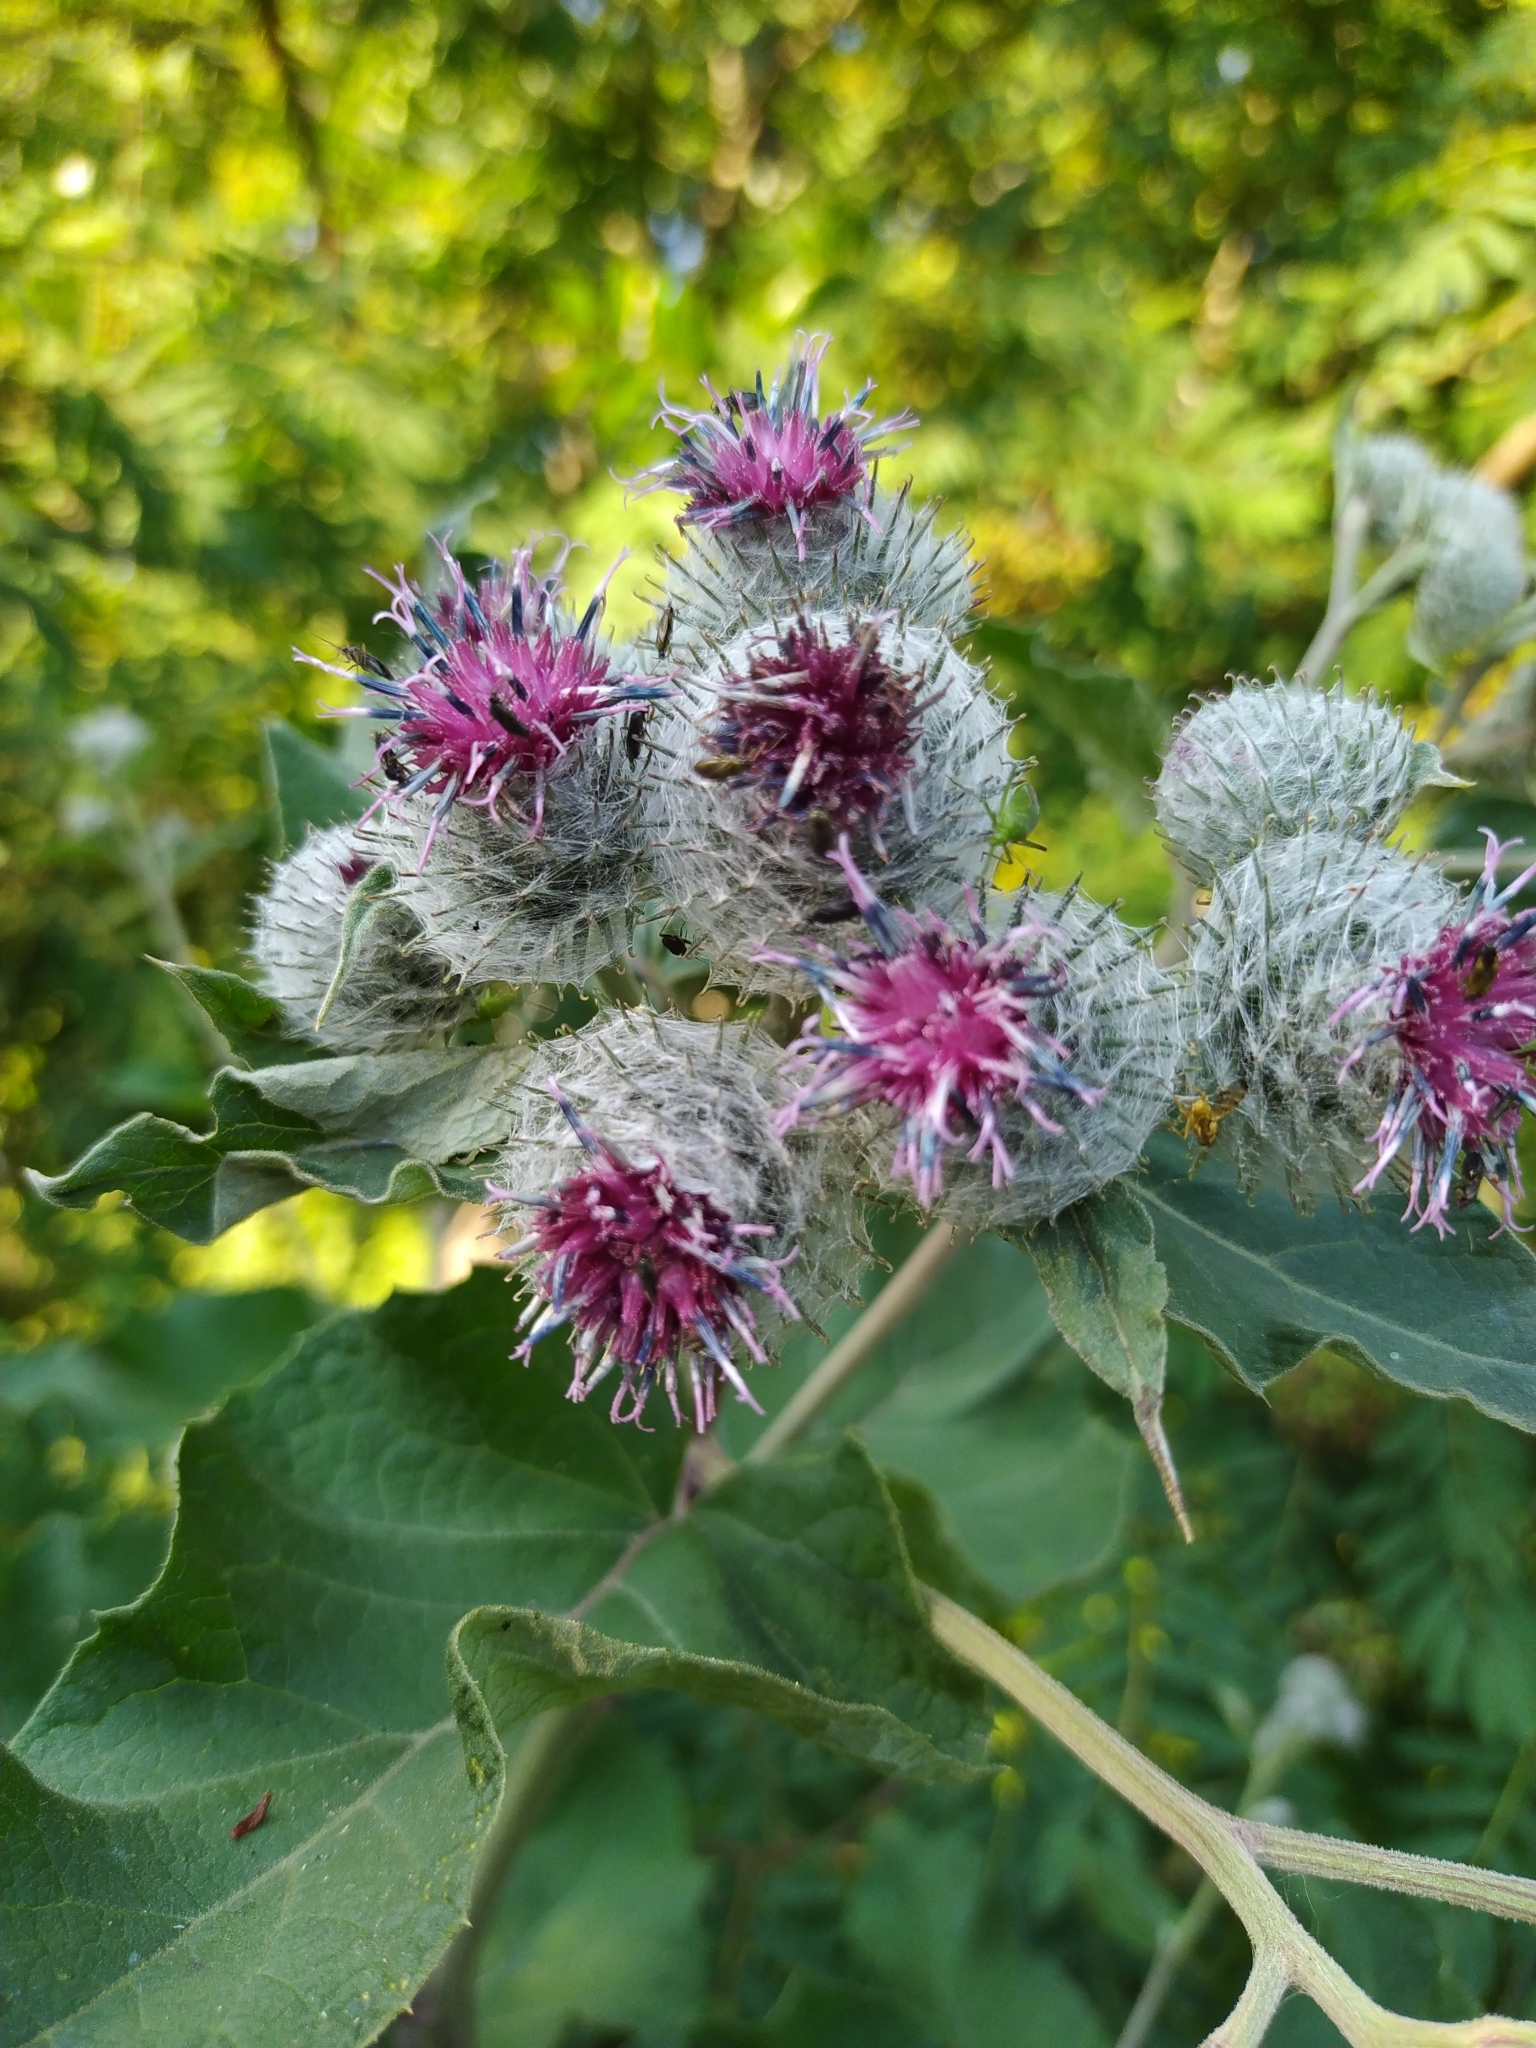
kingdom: Plantae
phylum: Tracheophyta
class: Magnoliopsida
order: Asterales
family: Asteraceae
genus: Arctium
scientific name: Arctium tomentosum
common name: Woolly burdock
